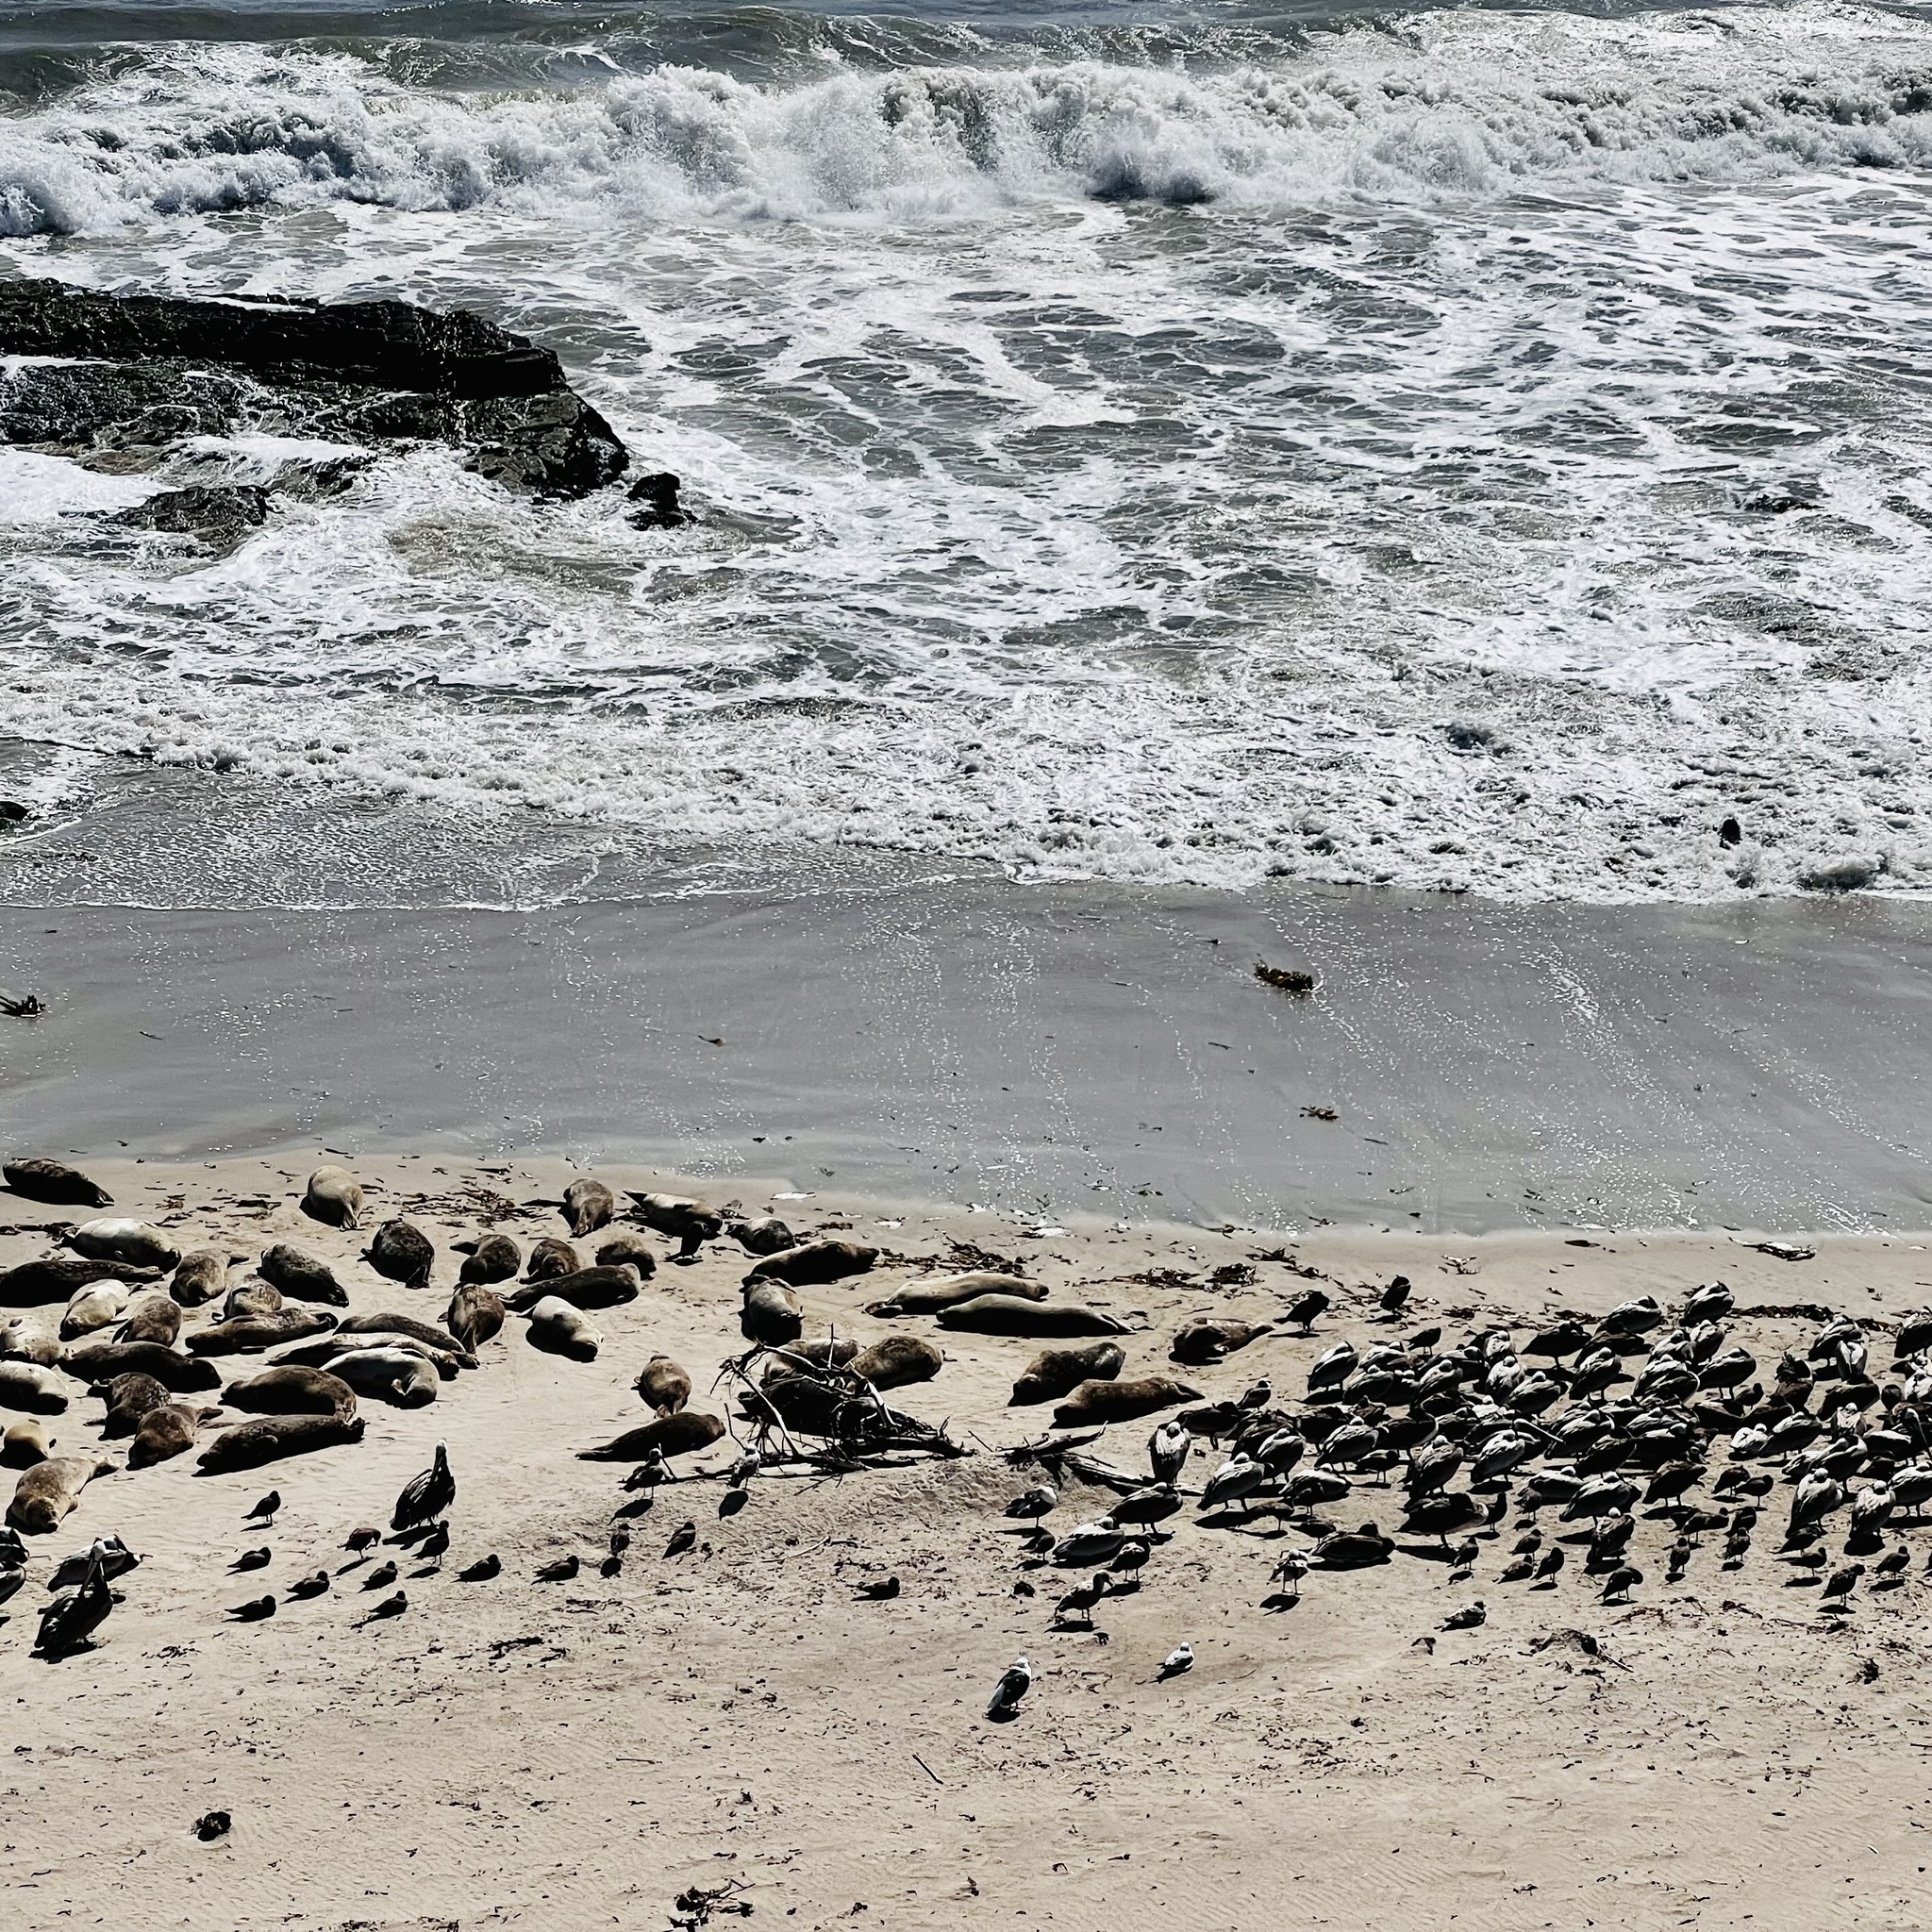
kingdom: Animalia
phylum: Chordata
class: Mammalia
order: Carnivora
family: Phocidae
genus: Phoca
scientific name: Phoca vitulina
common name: Harbor seal
